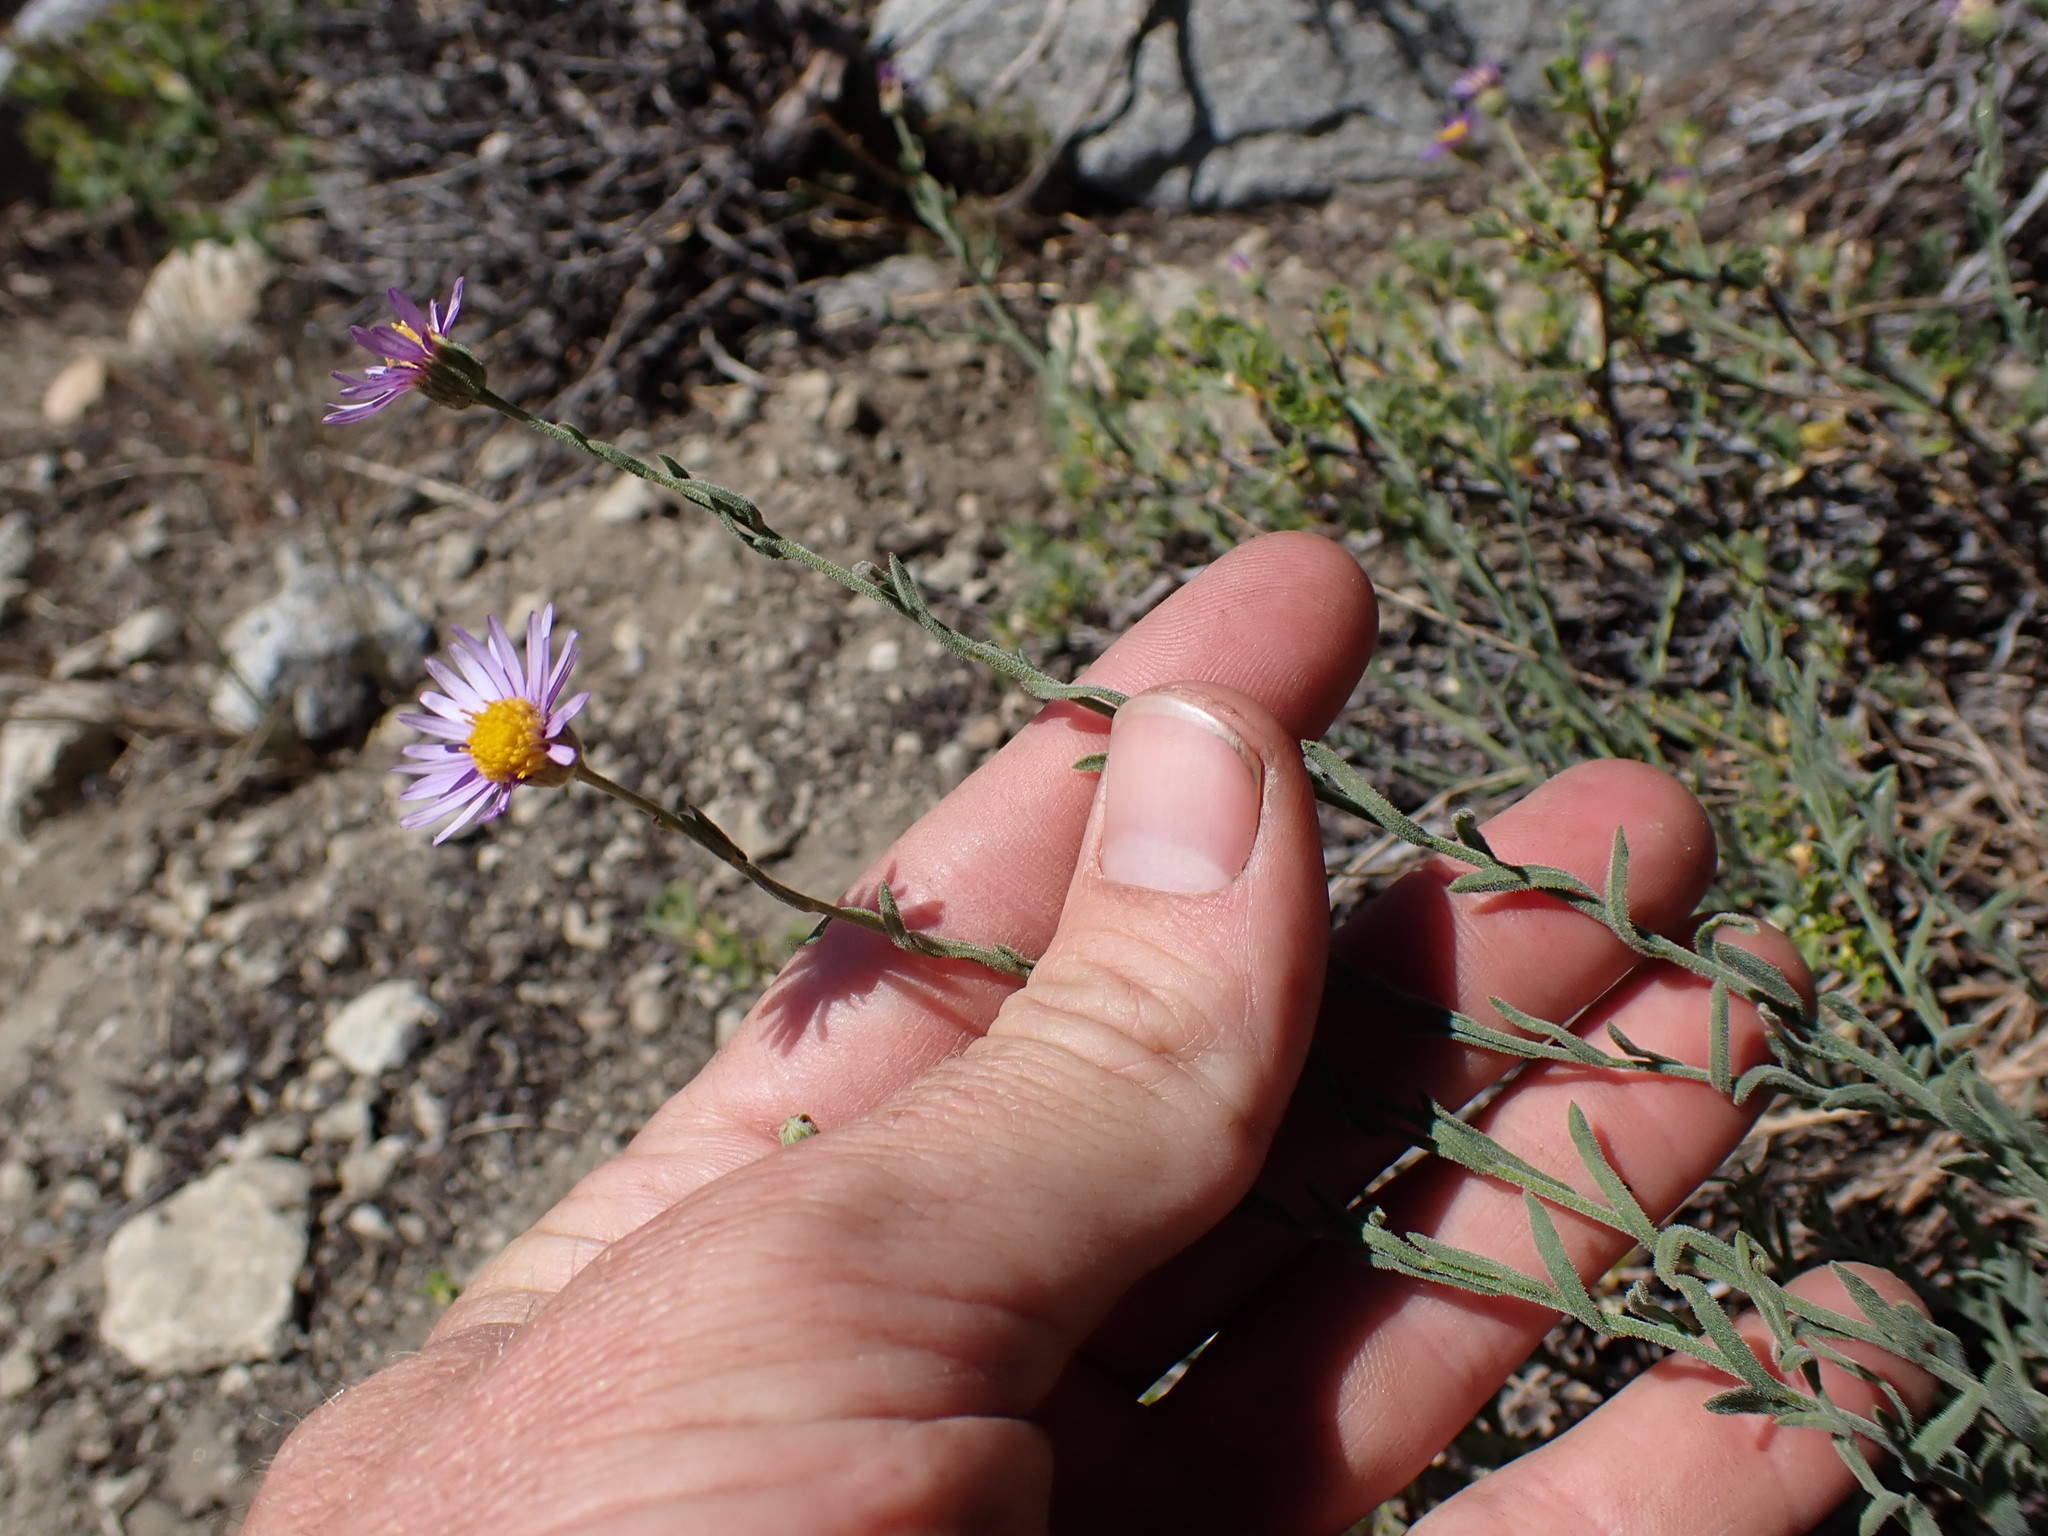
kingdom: Plantae
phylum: Tracheophyta
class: Magnoliopsida
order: Asterales
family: Asteraceae
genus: Erigeron
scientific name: Erigeron breweri
